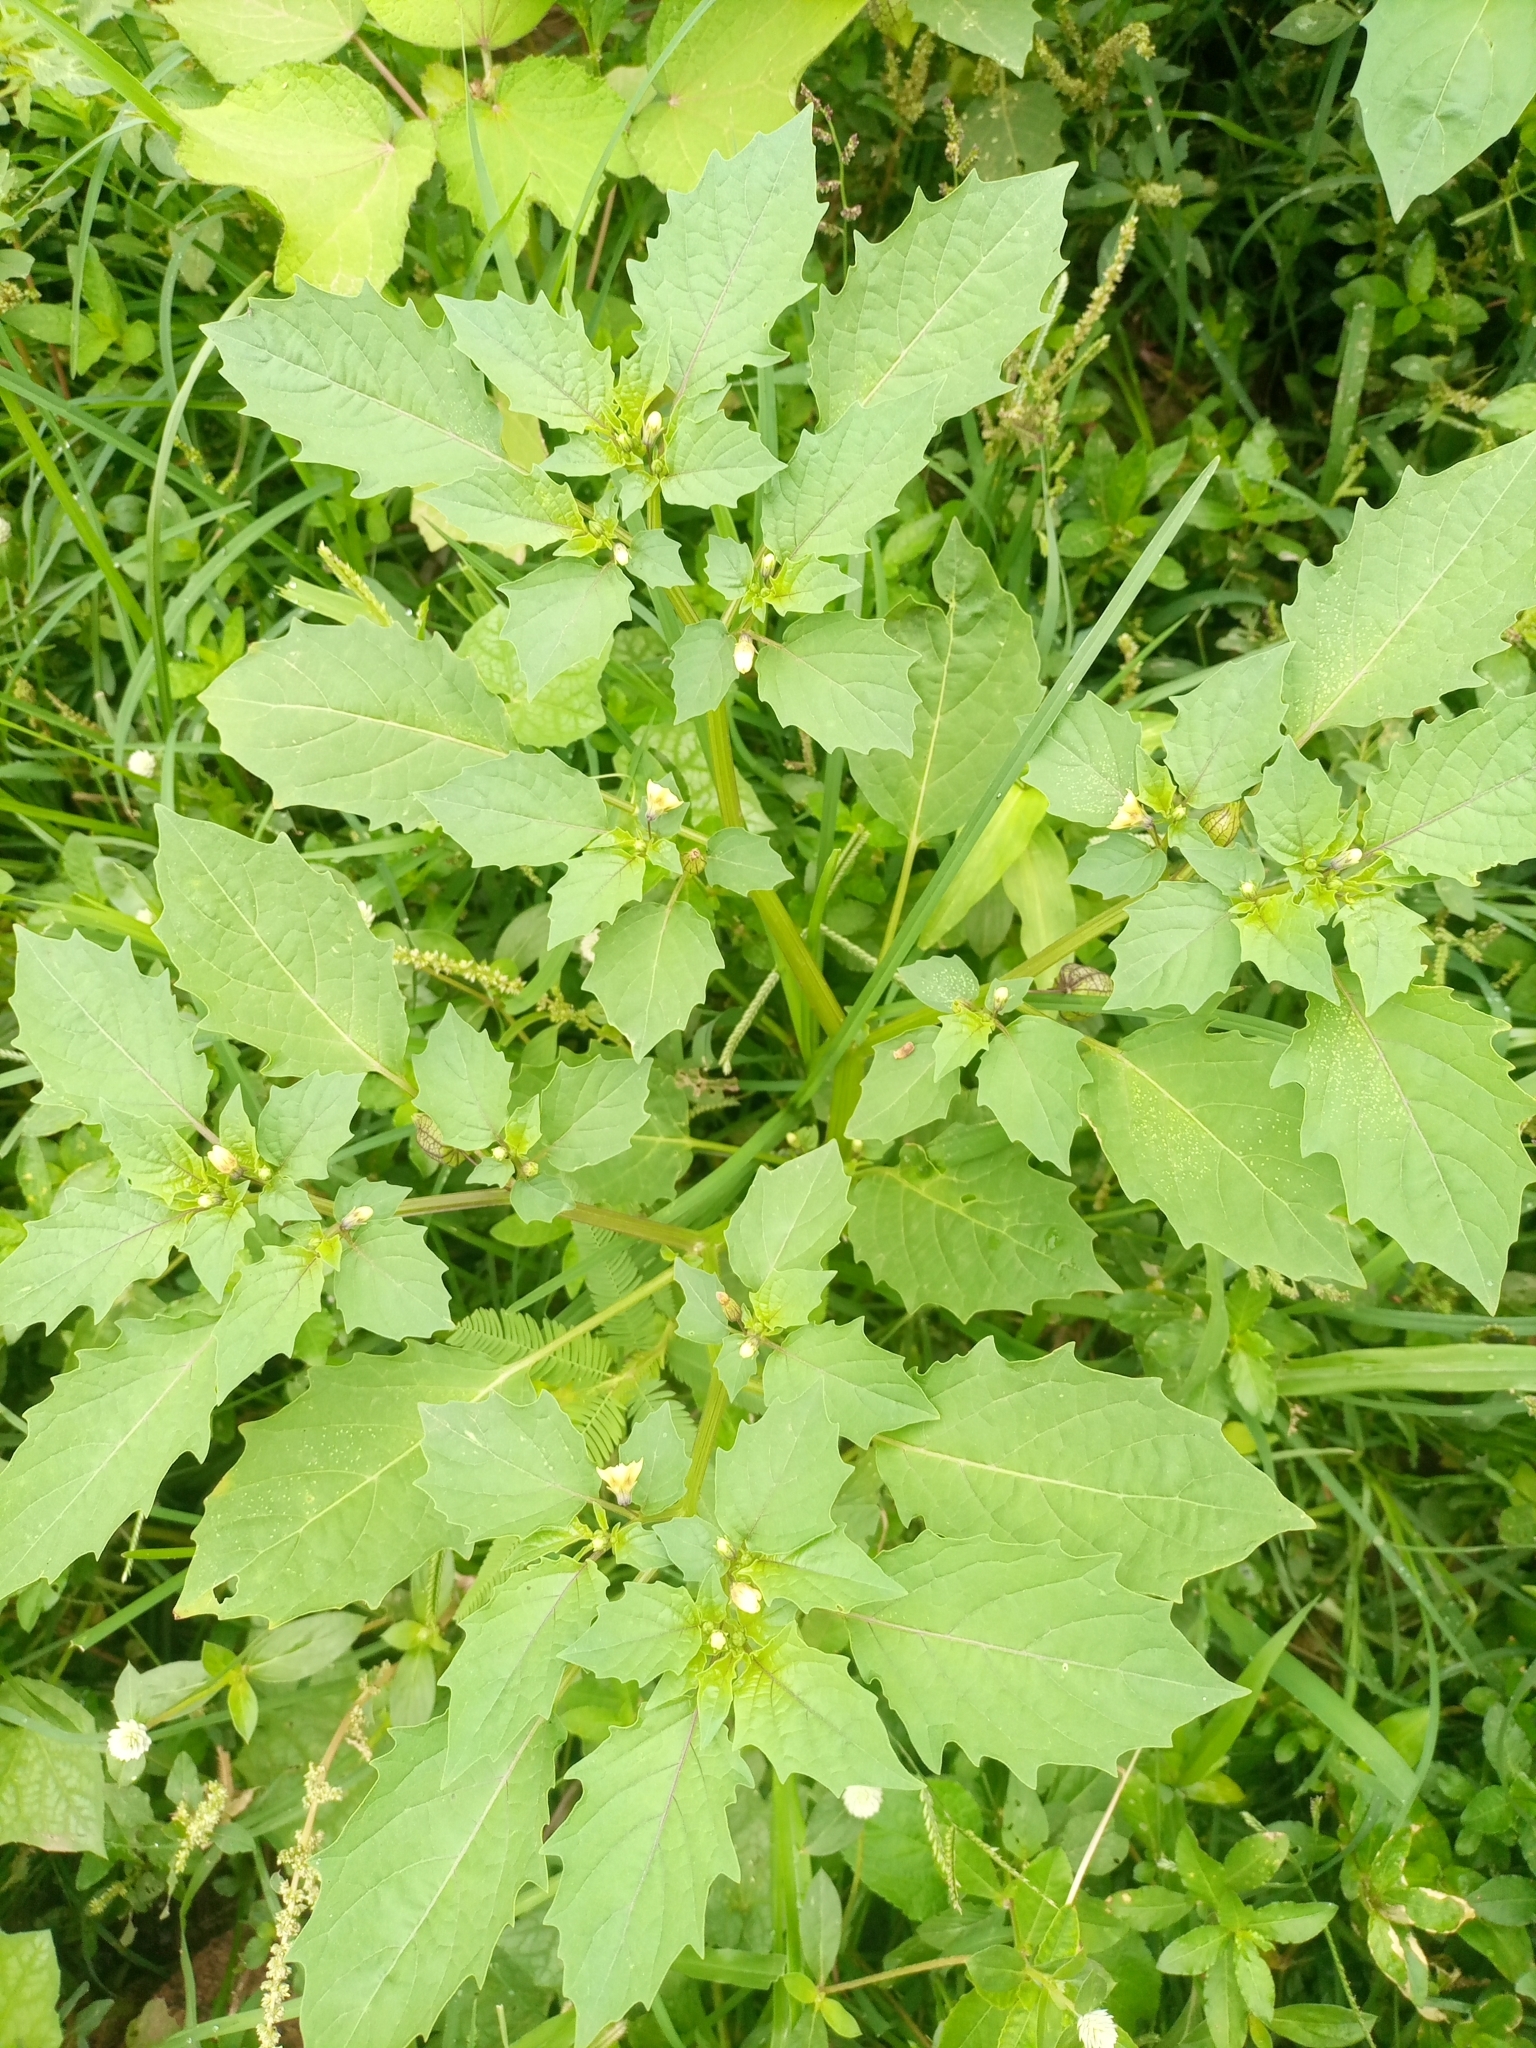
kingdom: Plantae
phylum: Tracheophyta
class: Magnoliopsida
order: Solanales
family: Solanaceae
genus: Physalis
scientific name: Physalis angulata
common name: Angular winter-cherry
